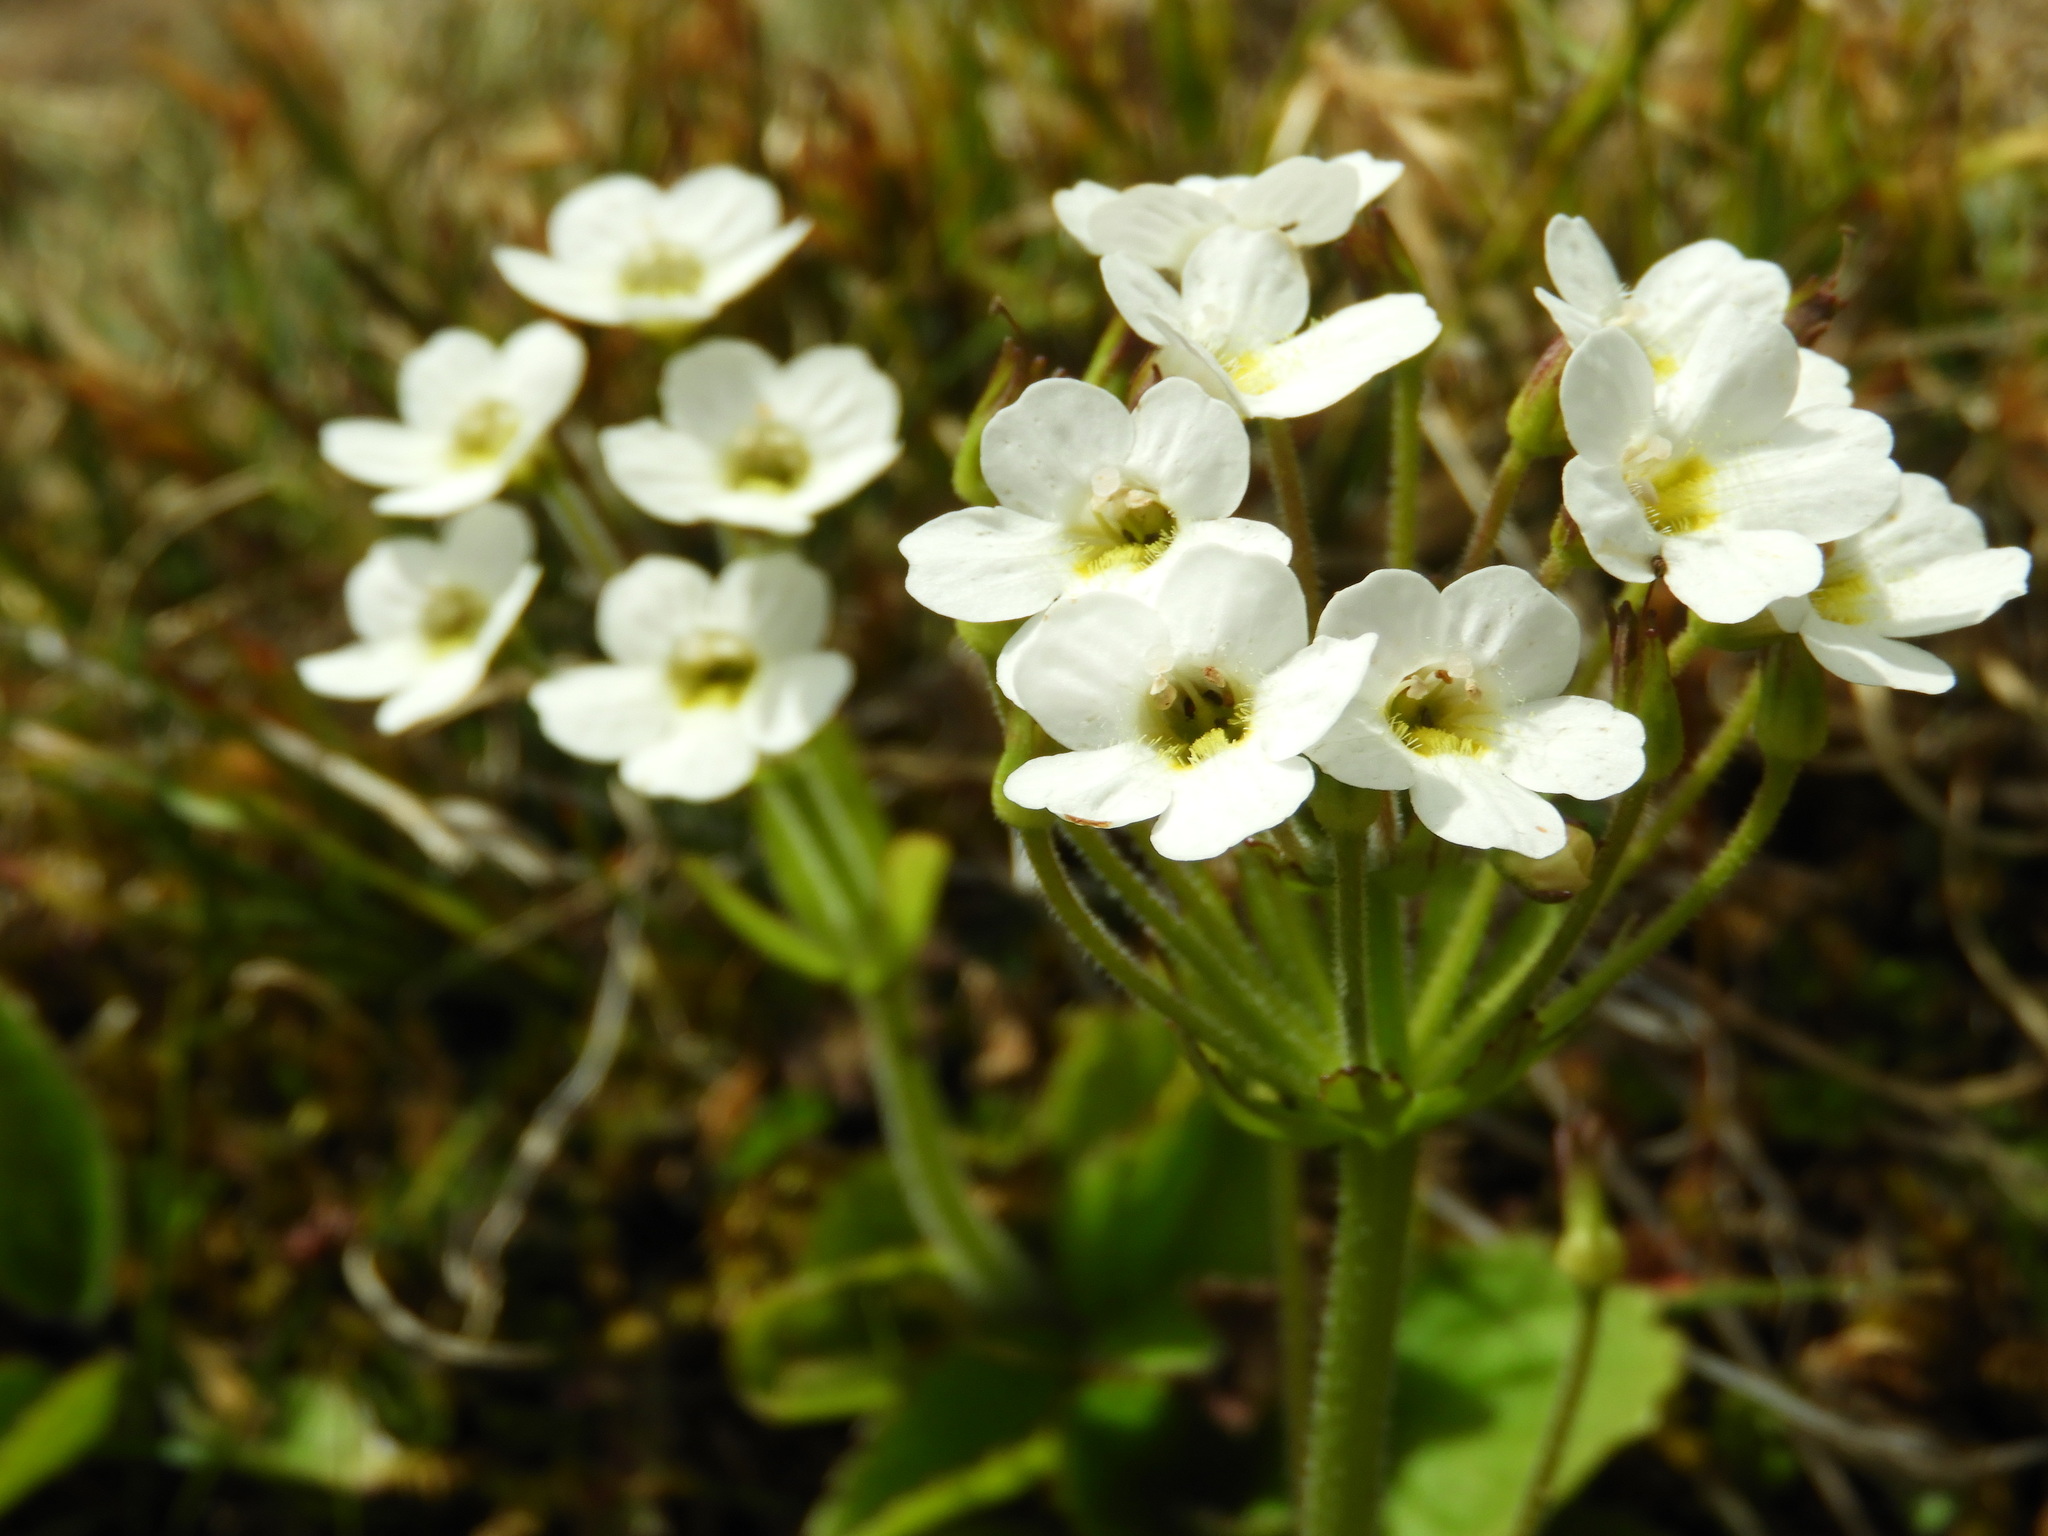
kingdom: Plantae
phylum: Tracheophyta
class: Magnoliopsida
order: Lamiales
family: Plantaginaceae
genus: Ourisia
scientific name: Ourisia macrophylla
